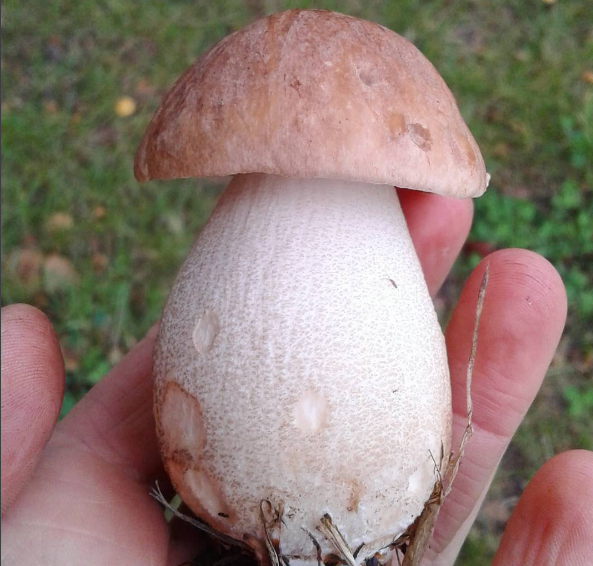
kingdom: Fungi
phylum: Basidiomycota
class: Agaricomycetes
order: Boletales
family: Boletaceae
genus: Leccinum
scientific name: Leccinum scabrum
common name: Blushing bolete
